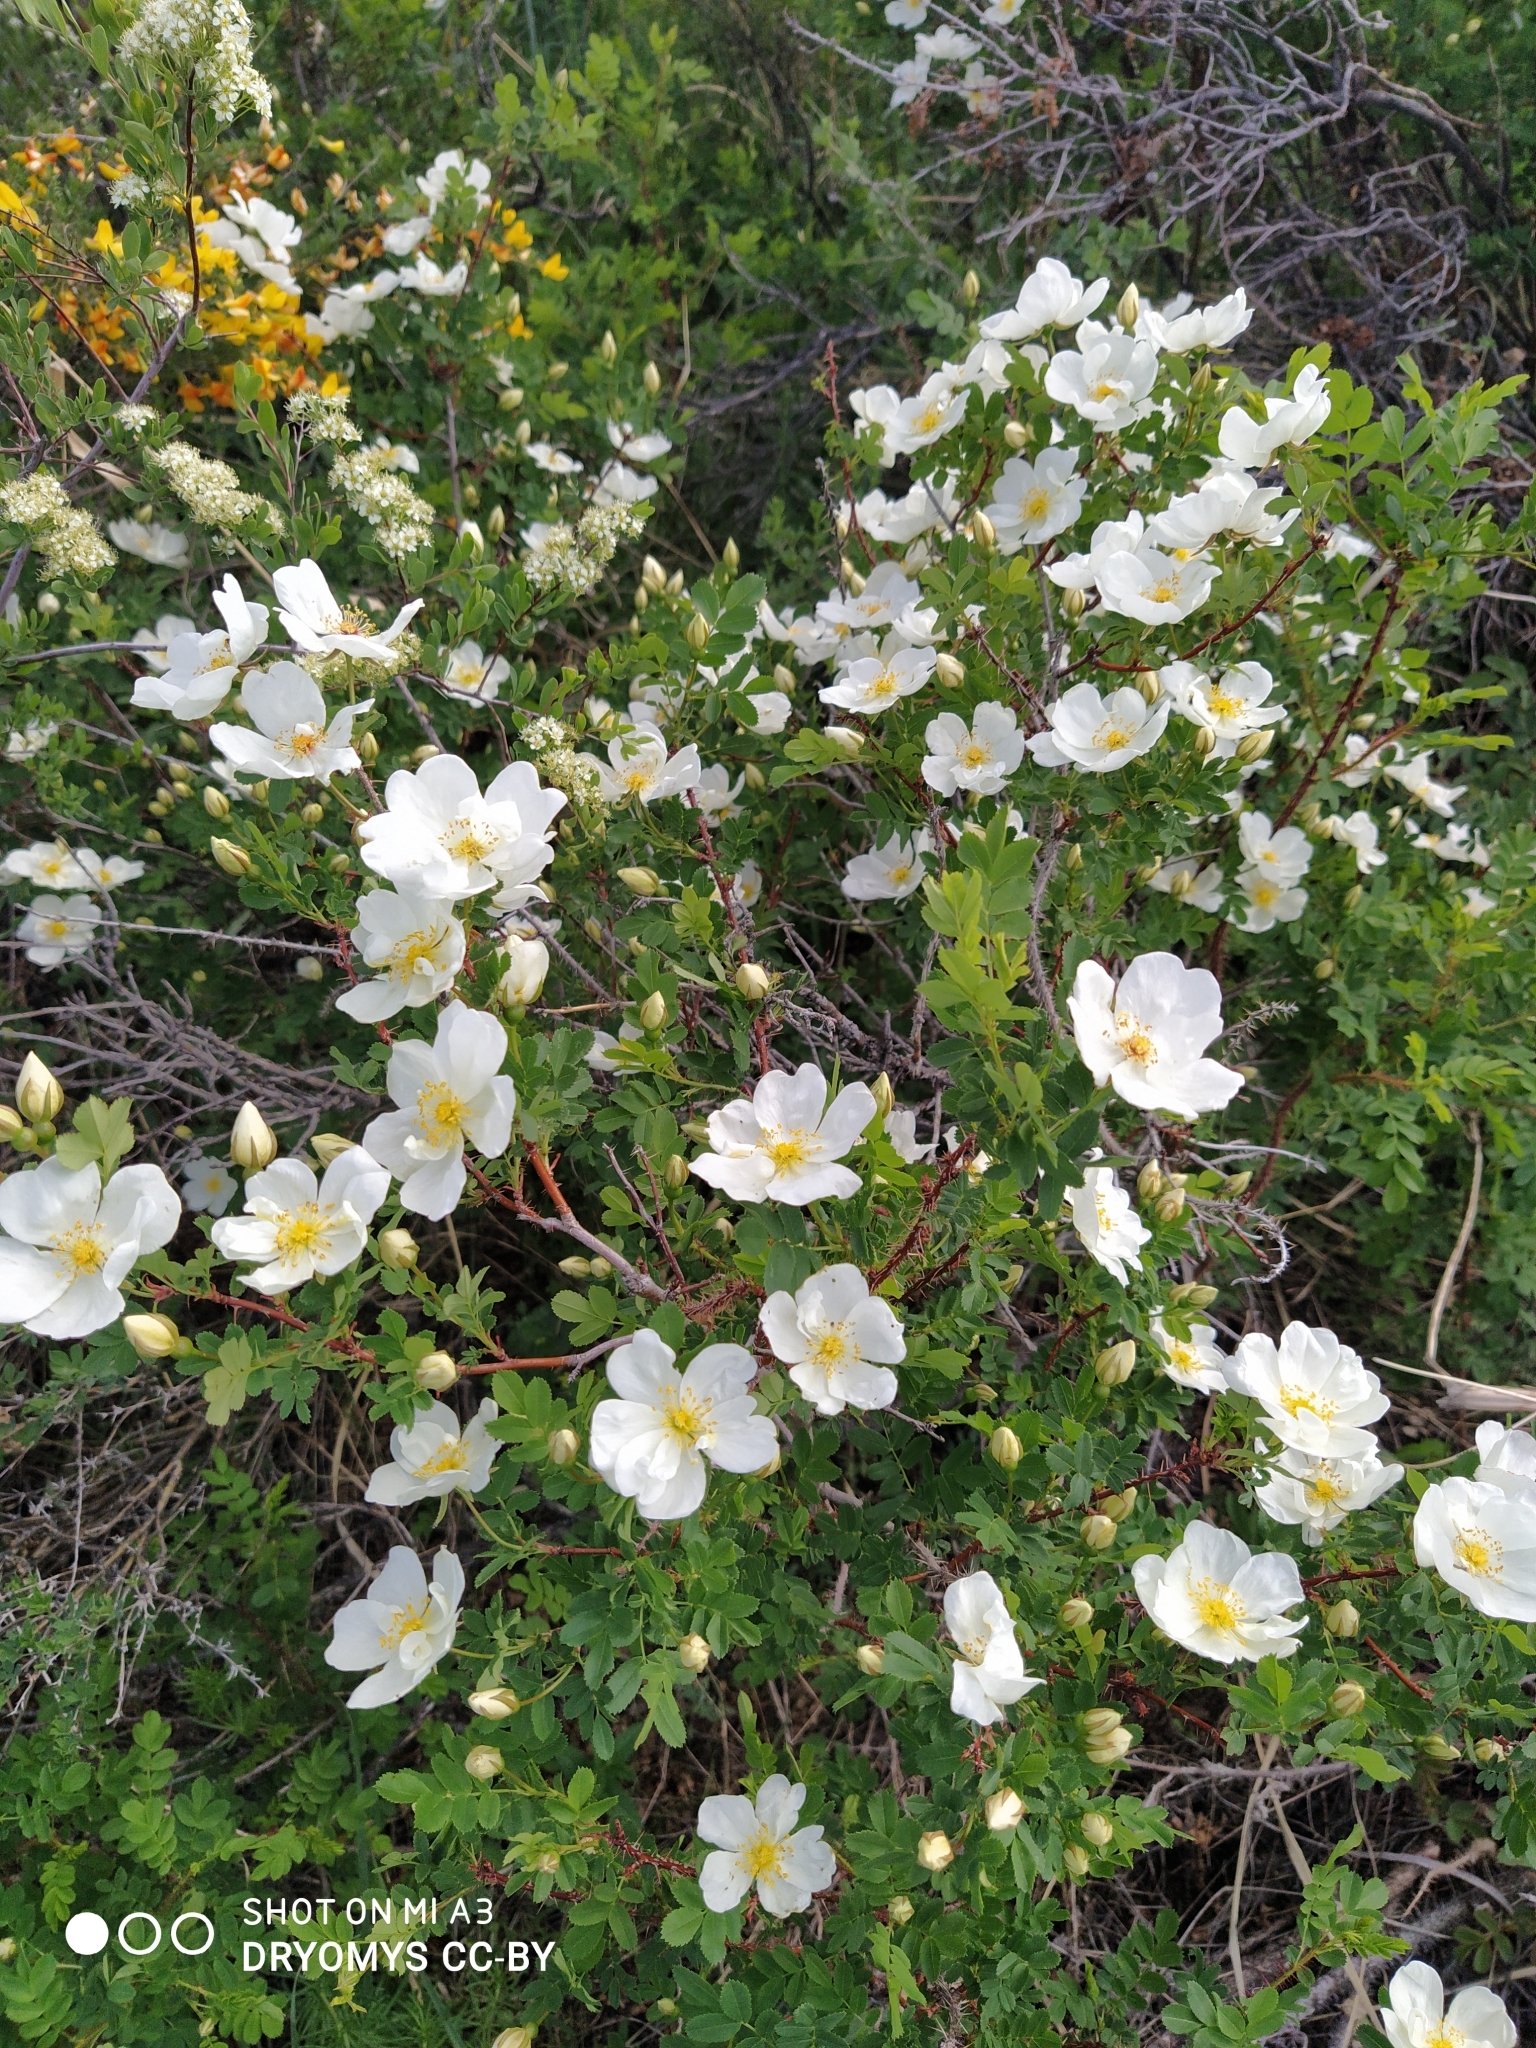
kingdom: Plantae
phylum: Tracheophyta
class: Magnoliopsida
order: Rosales
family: Rosaceae
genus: Rosa
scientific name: Rosa spinosissima
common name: Burnet rose
